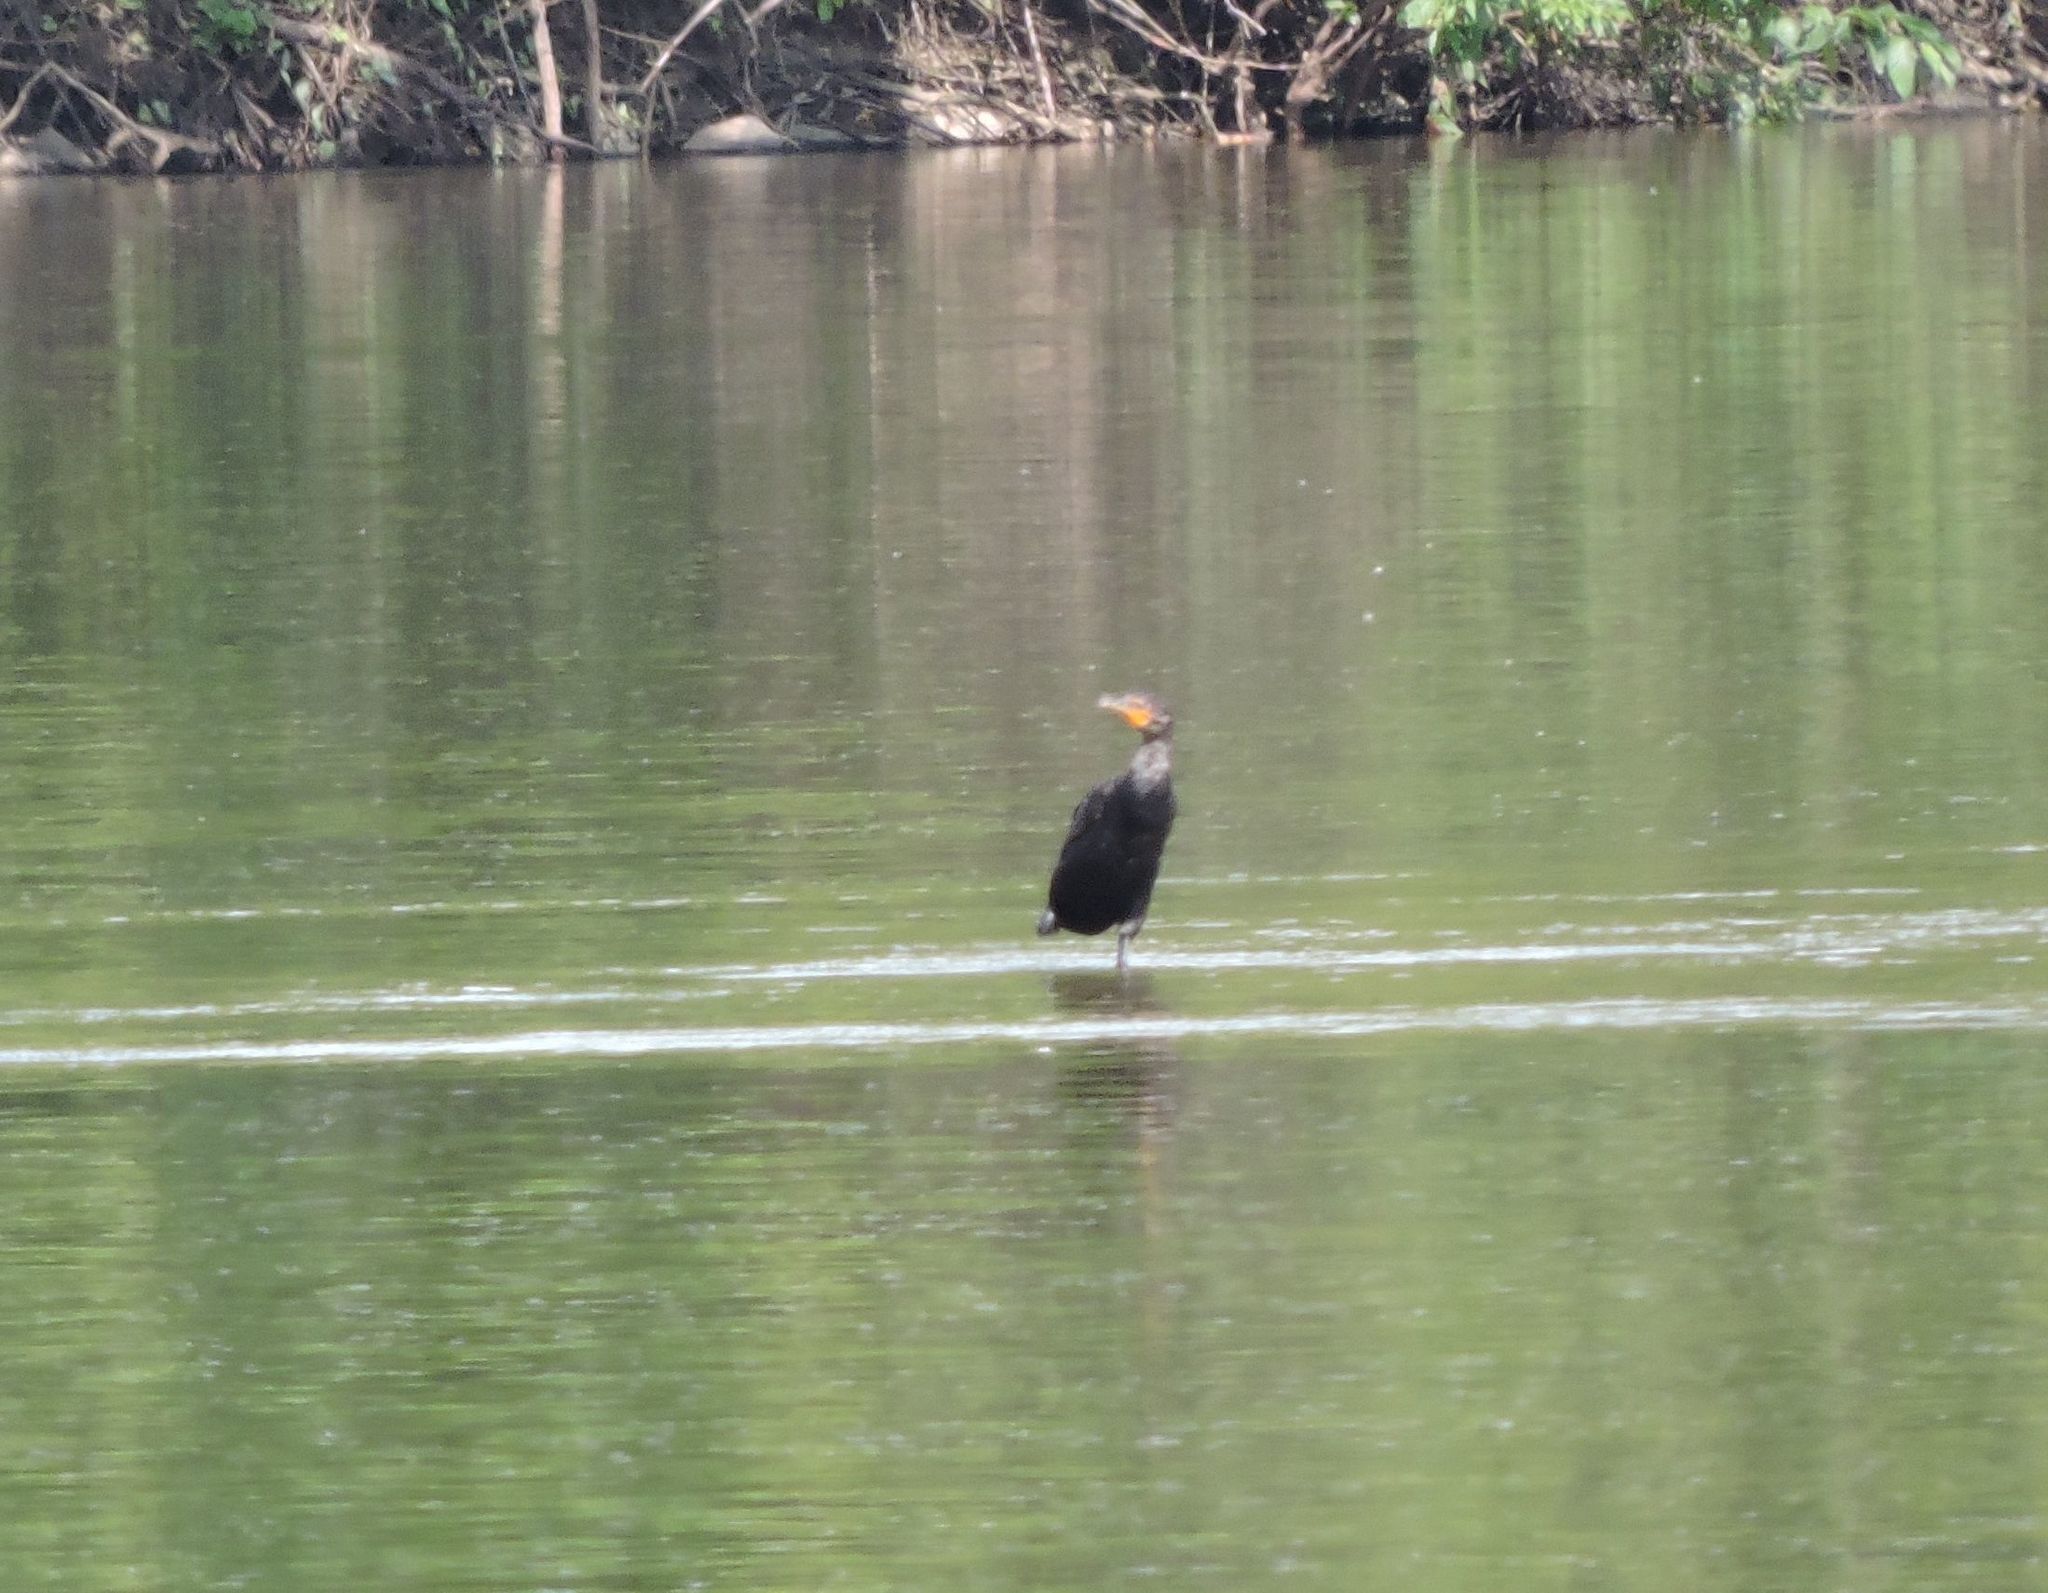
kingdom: Animalia
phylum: Chordata
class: Aves
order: Suliformes
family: Phalacrocoracidae
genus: Phalacrocorax
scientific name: Phalacrocorax auritus
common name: Double-crested cormorant
